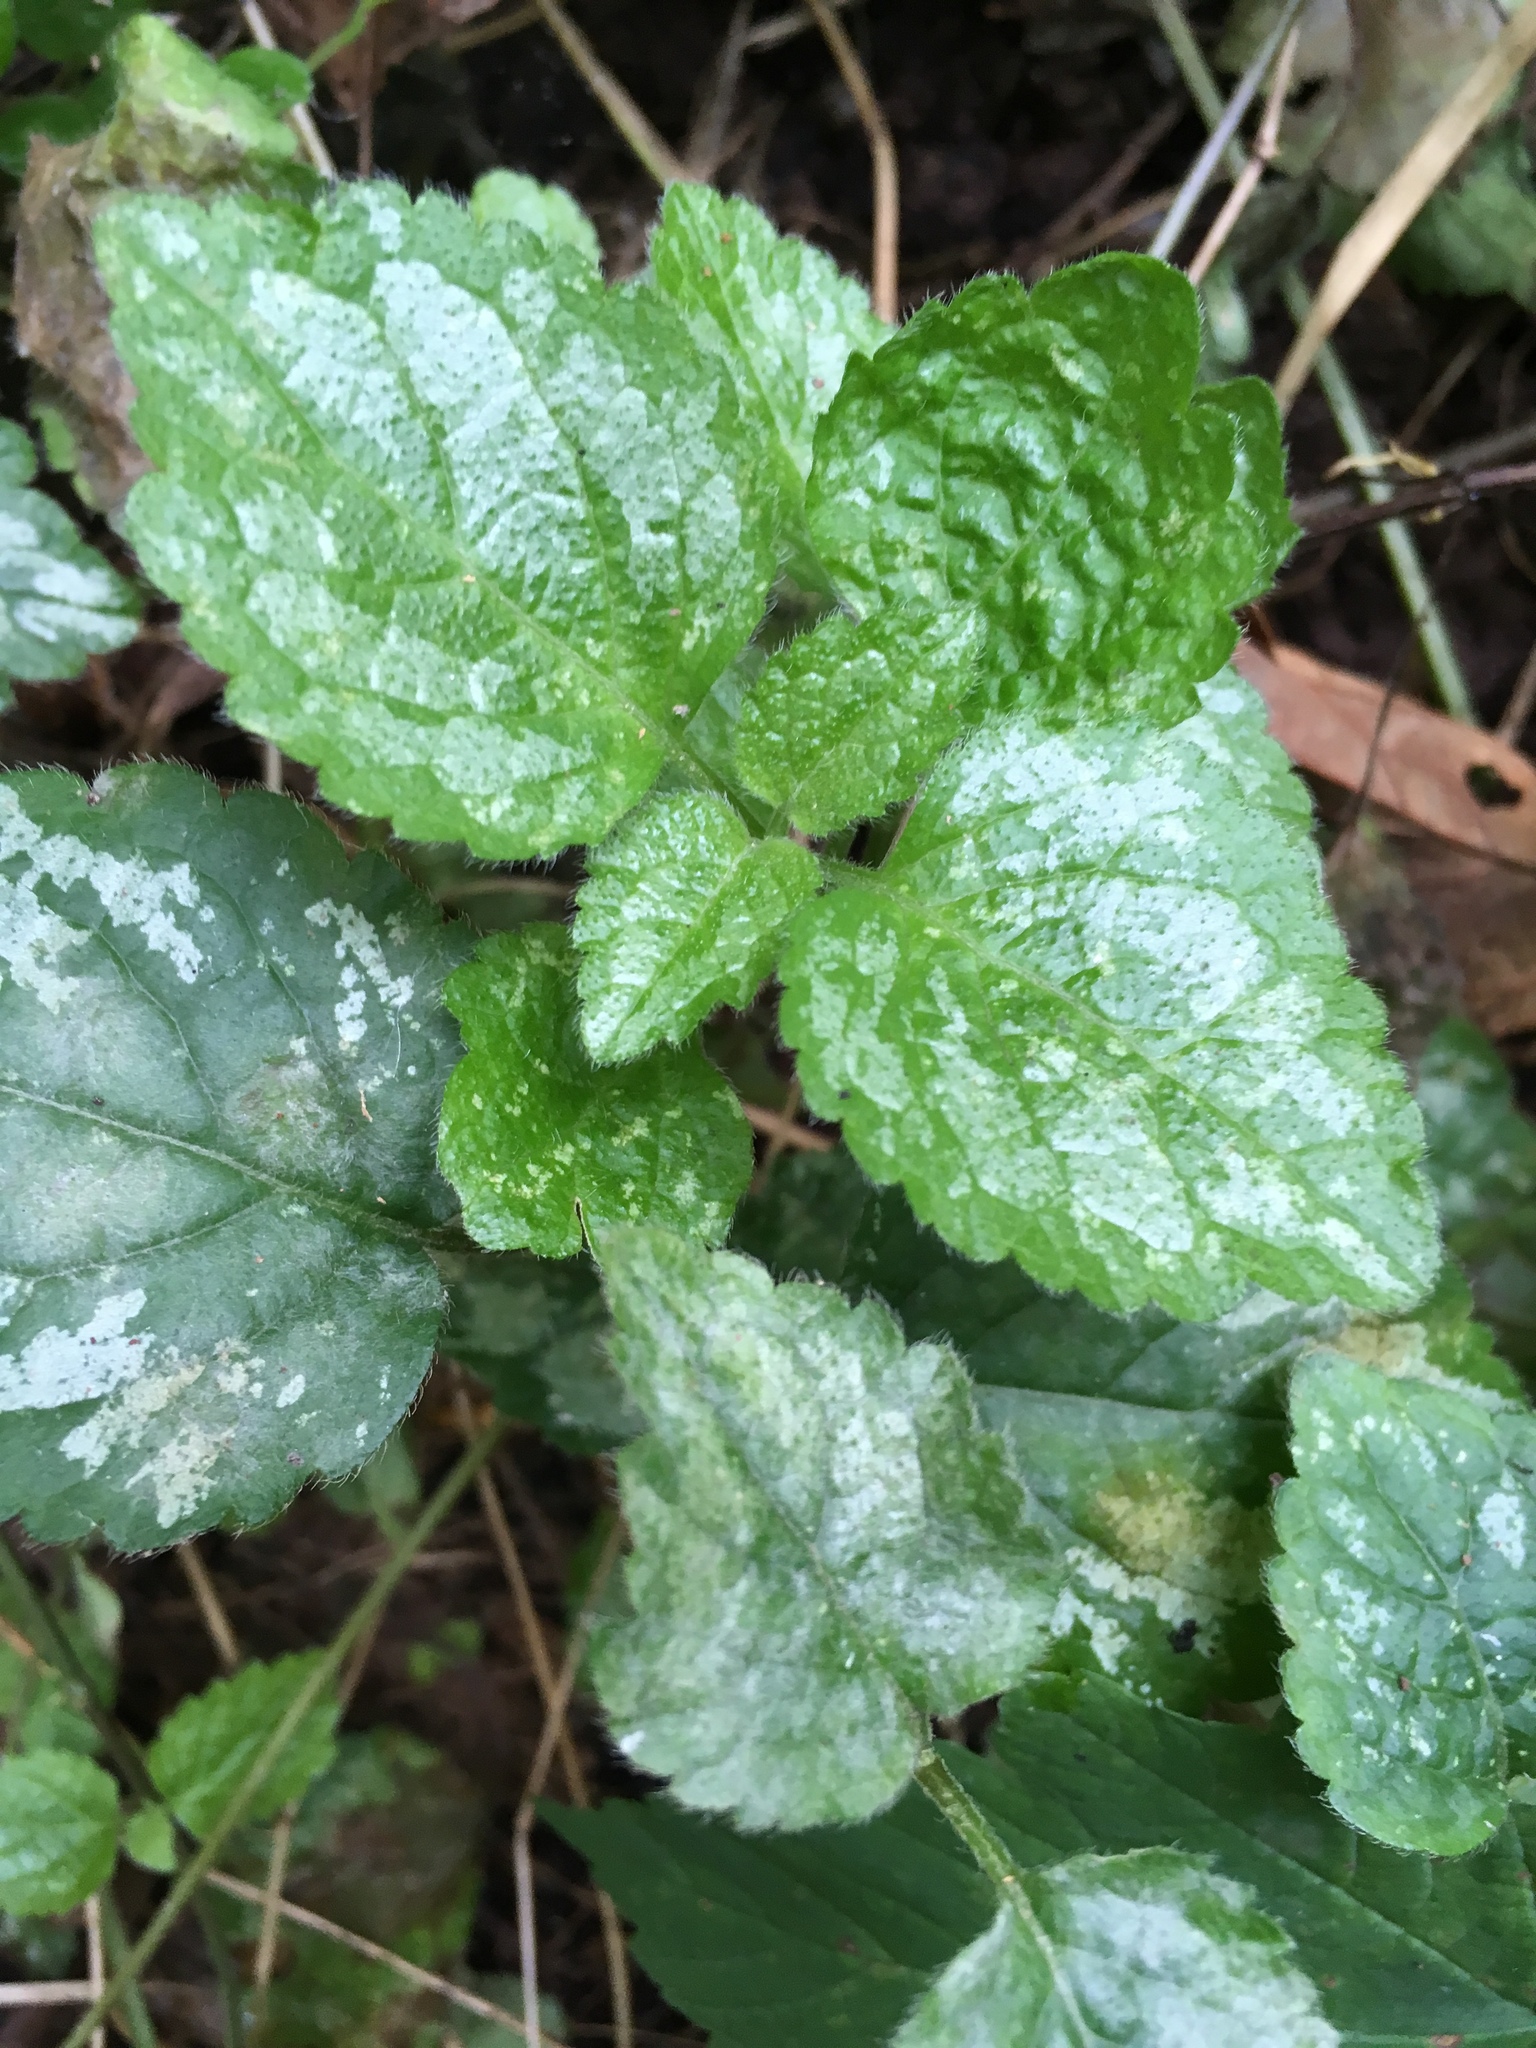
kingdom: Plantae
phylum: Tracheophyta
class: Magnoliopsida
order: Lamiales
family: Lamiaceae
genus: Lamium
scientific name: Lamium galeobdolon
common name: Yellow archangel
